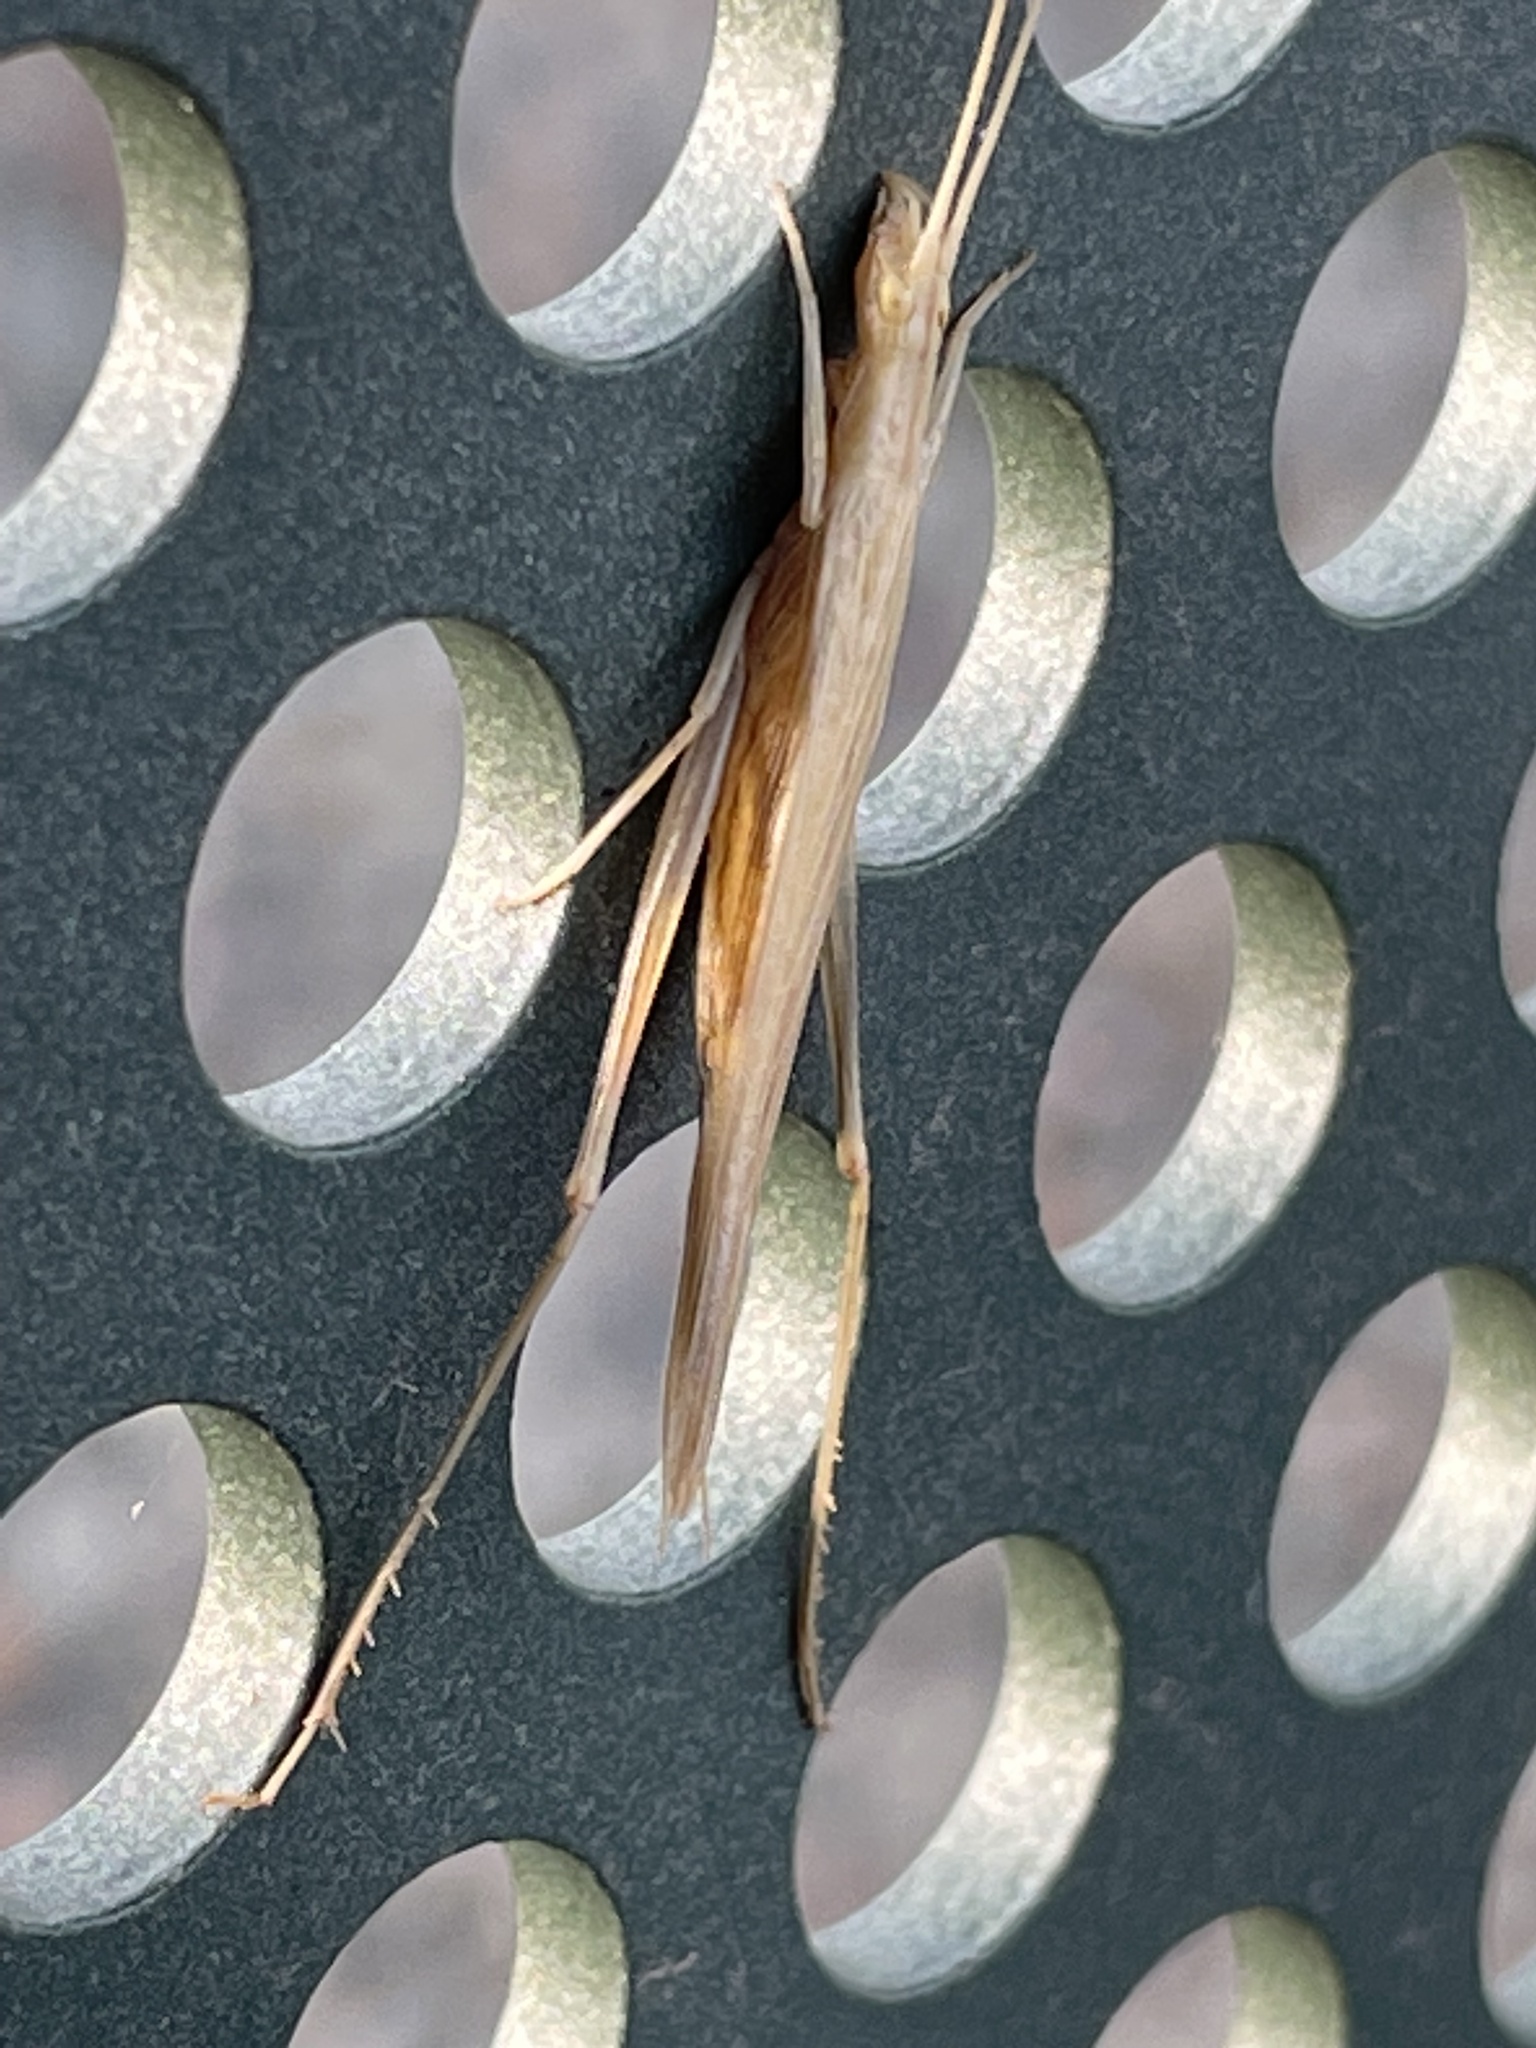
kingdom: Animalia
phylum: Arthropoda
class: Insecta
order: Orthoptera
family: Gryllidae
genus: Oecanthus
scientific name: Oecanthus rufescens
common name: Striped tree cricket
